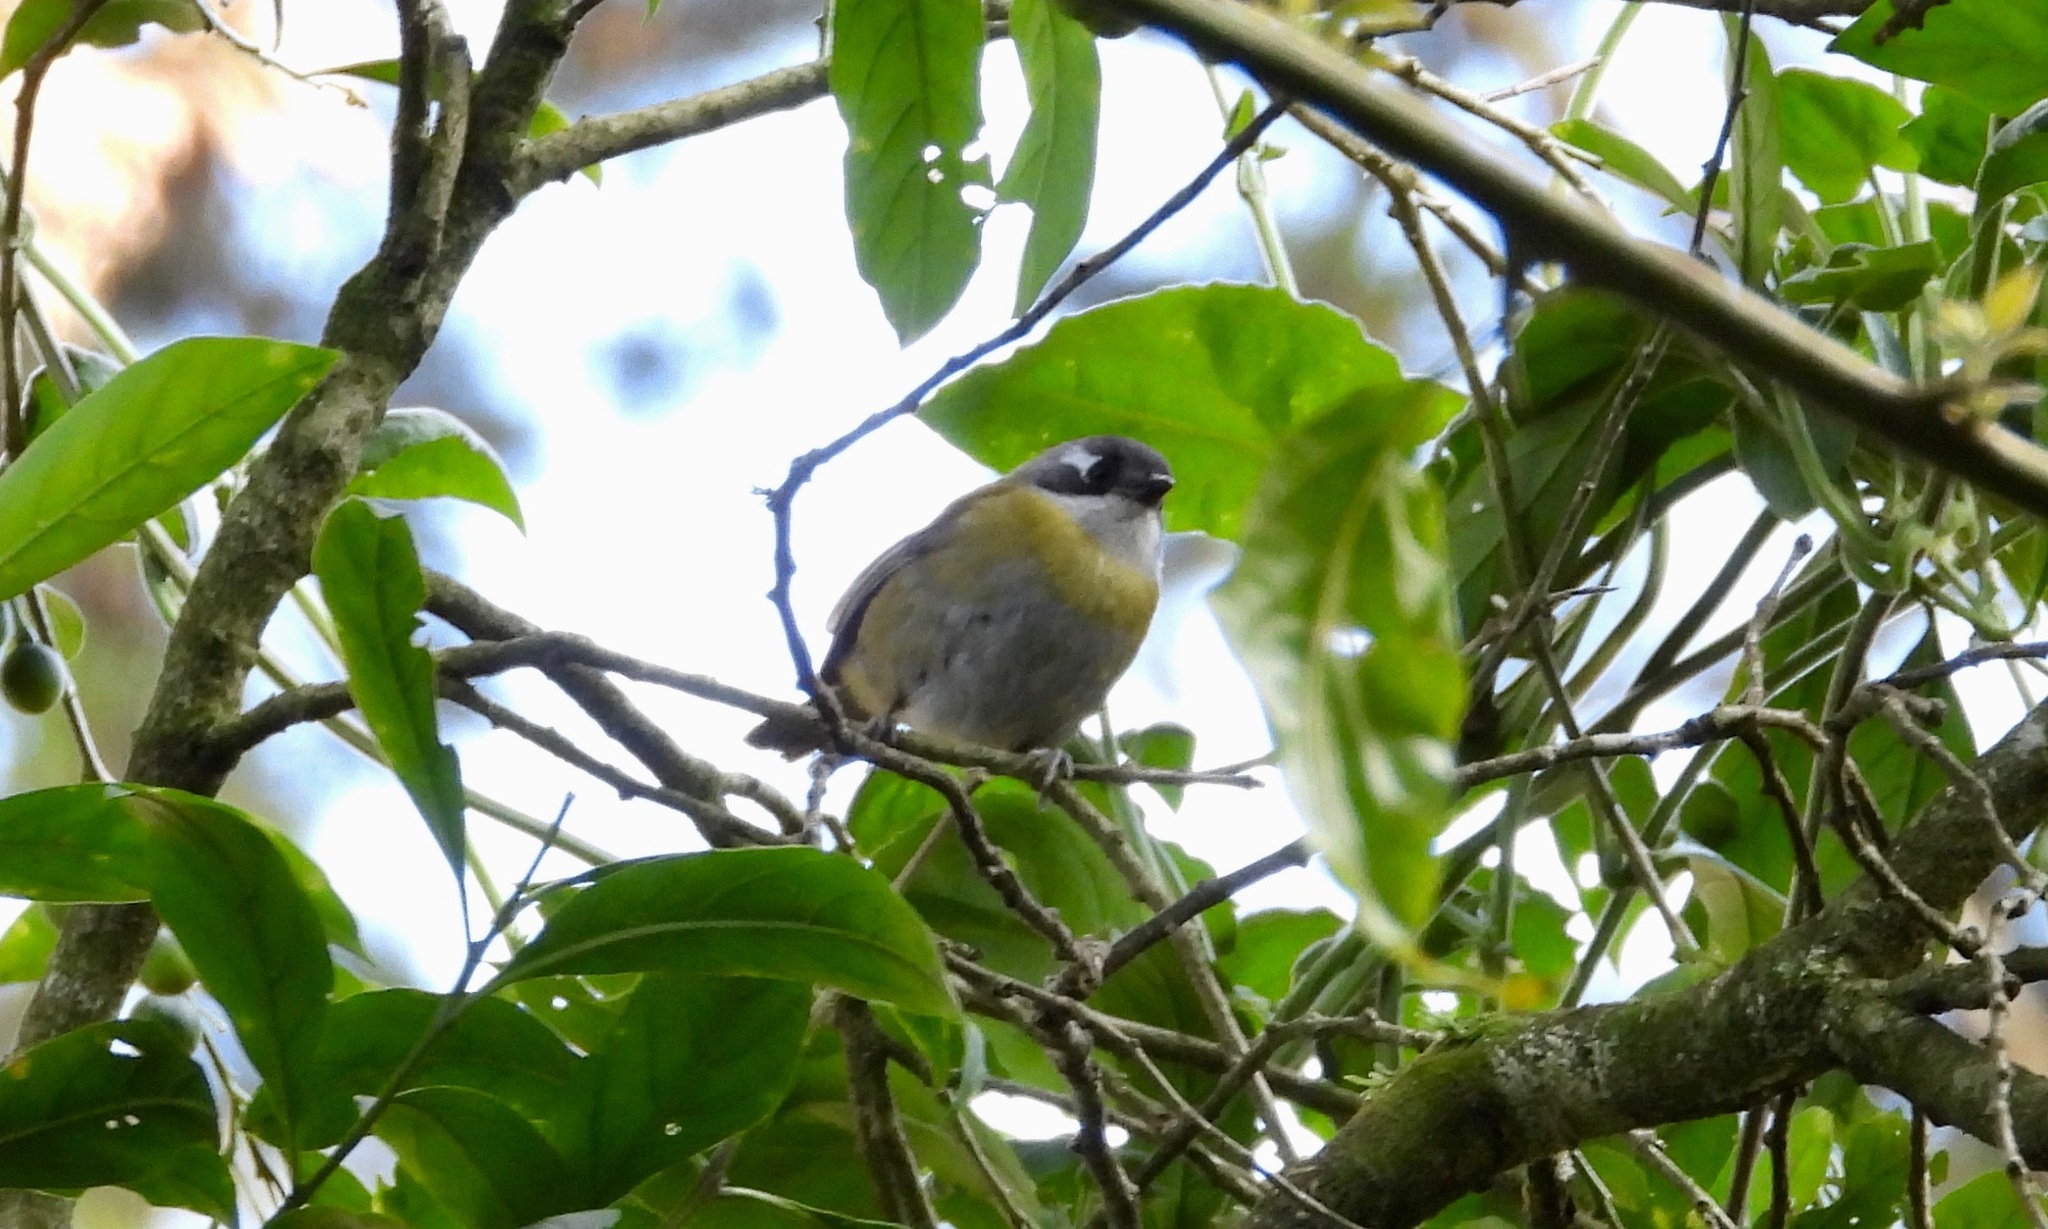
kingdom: Animalia
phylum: Chordata
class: Aves
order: Passeriformes
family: Passerellidae
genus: Chlorospingus
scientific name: Chlorospingus flavopectus
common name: Common chlorospingus
